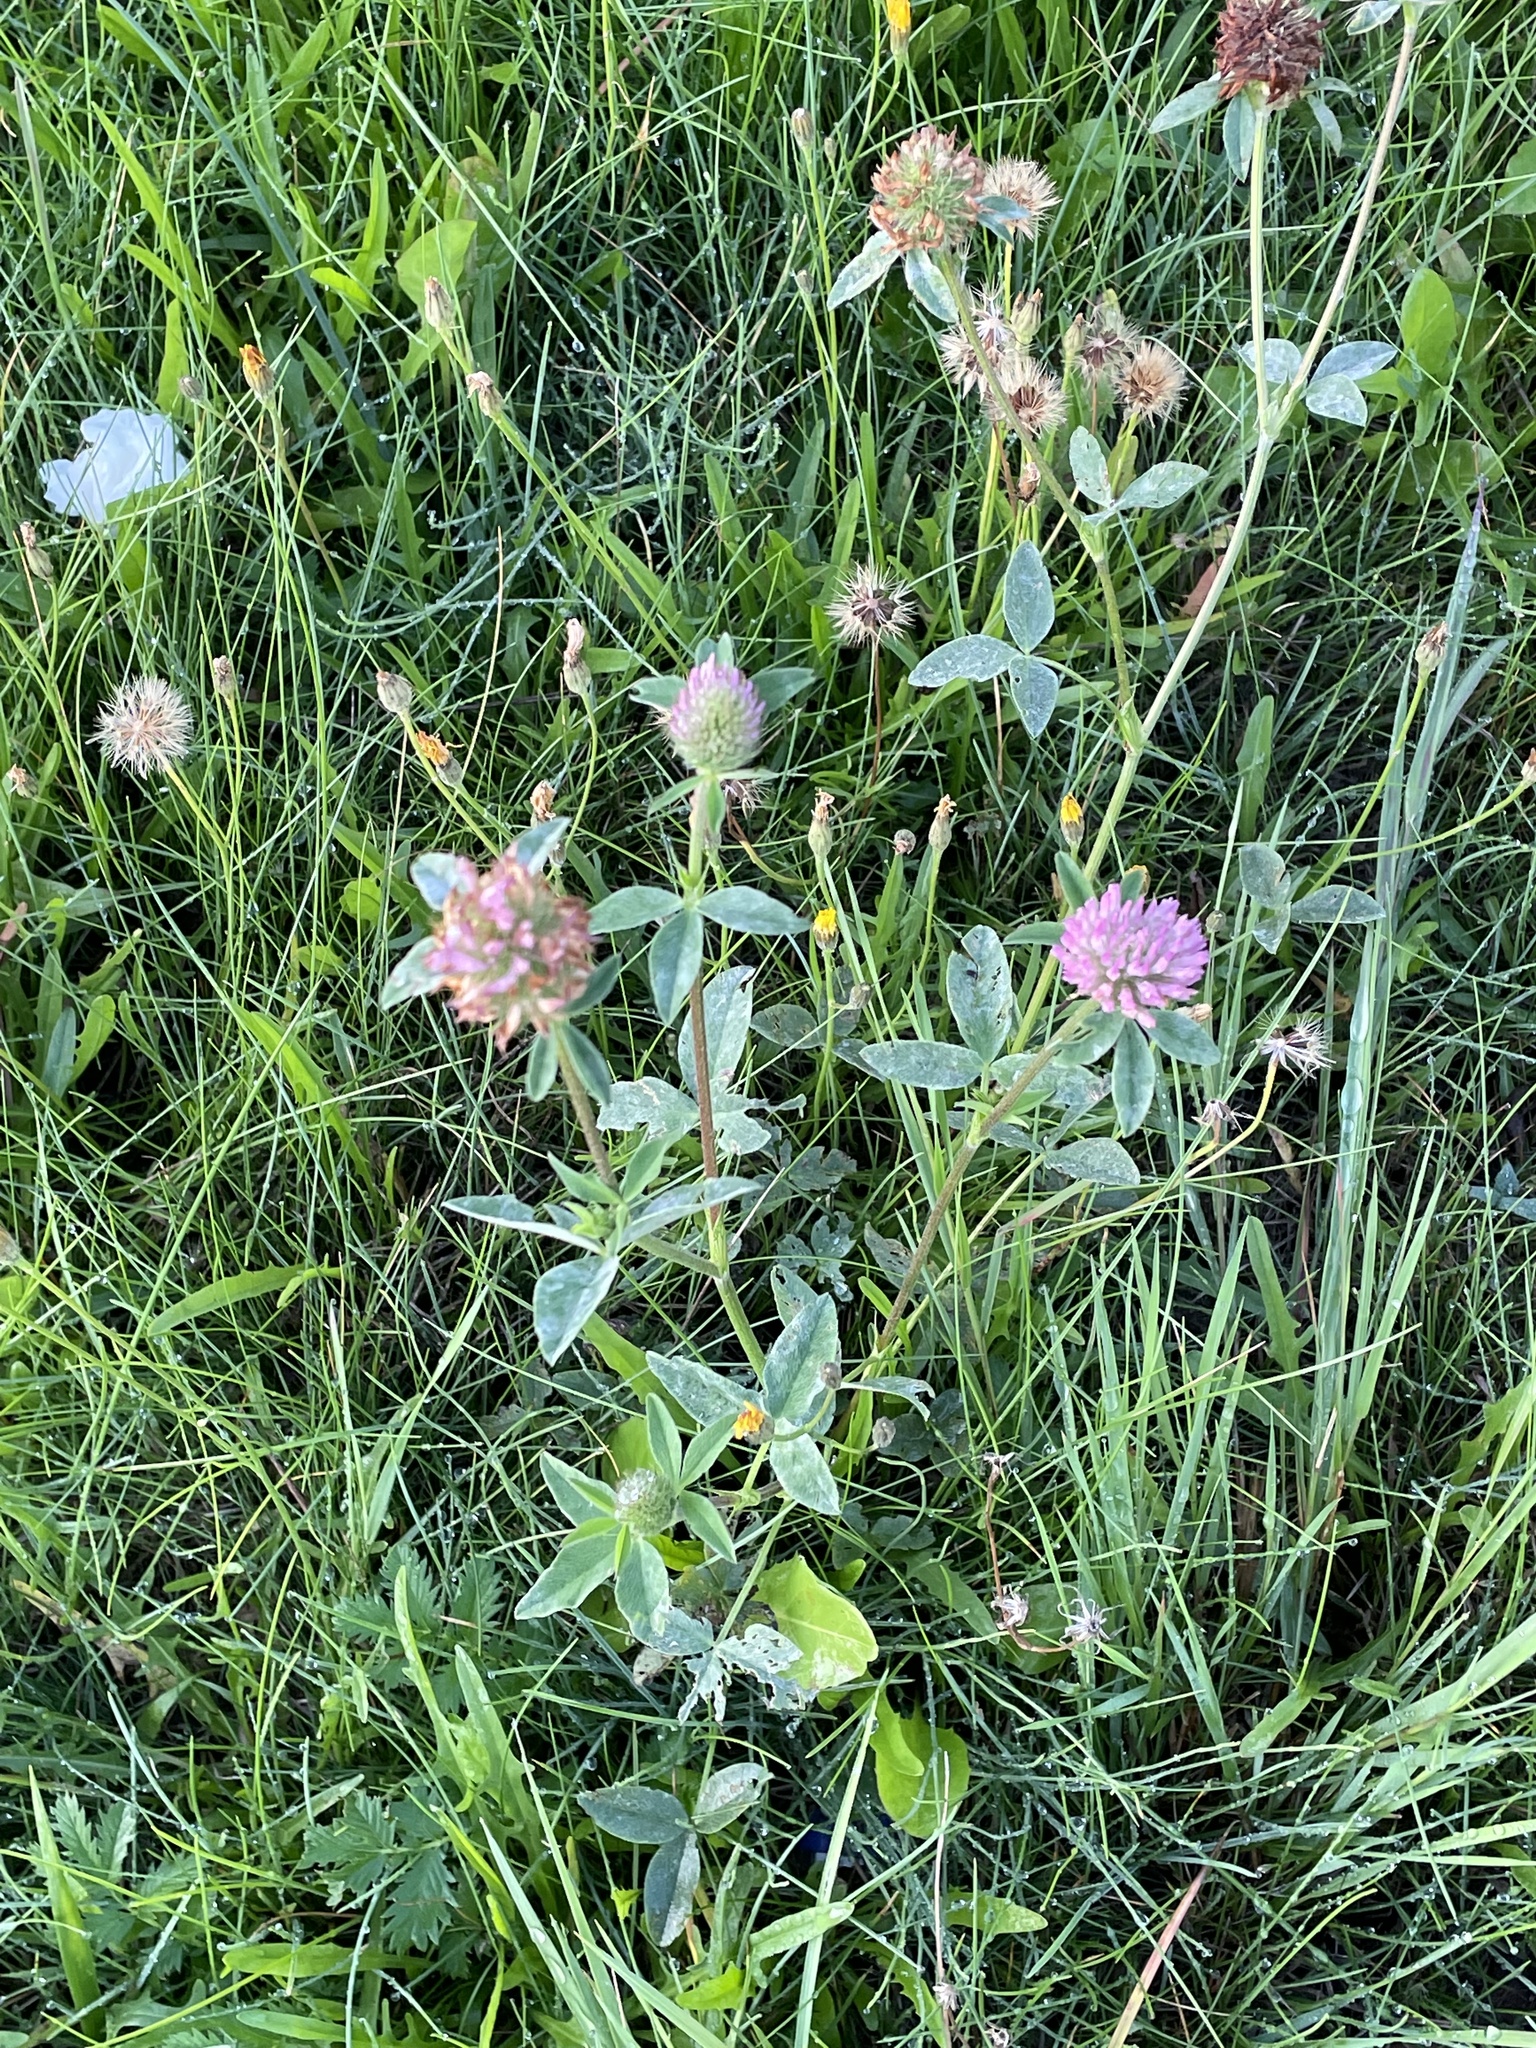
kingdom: Plantae
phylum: Tracheophyta
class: Magnoliopsida
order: Fabales
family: Fabaceae
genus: Trifolium
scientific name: Trifolium pratense
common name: Red clover
